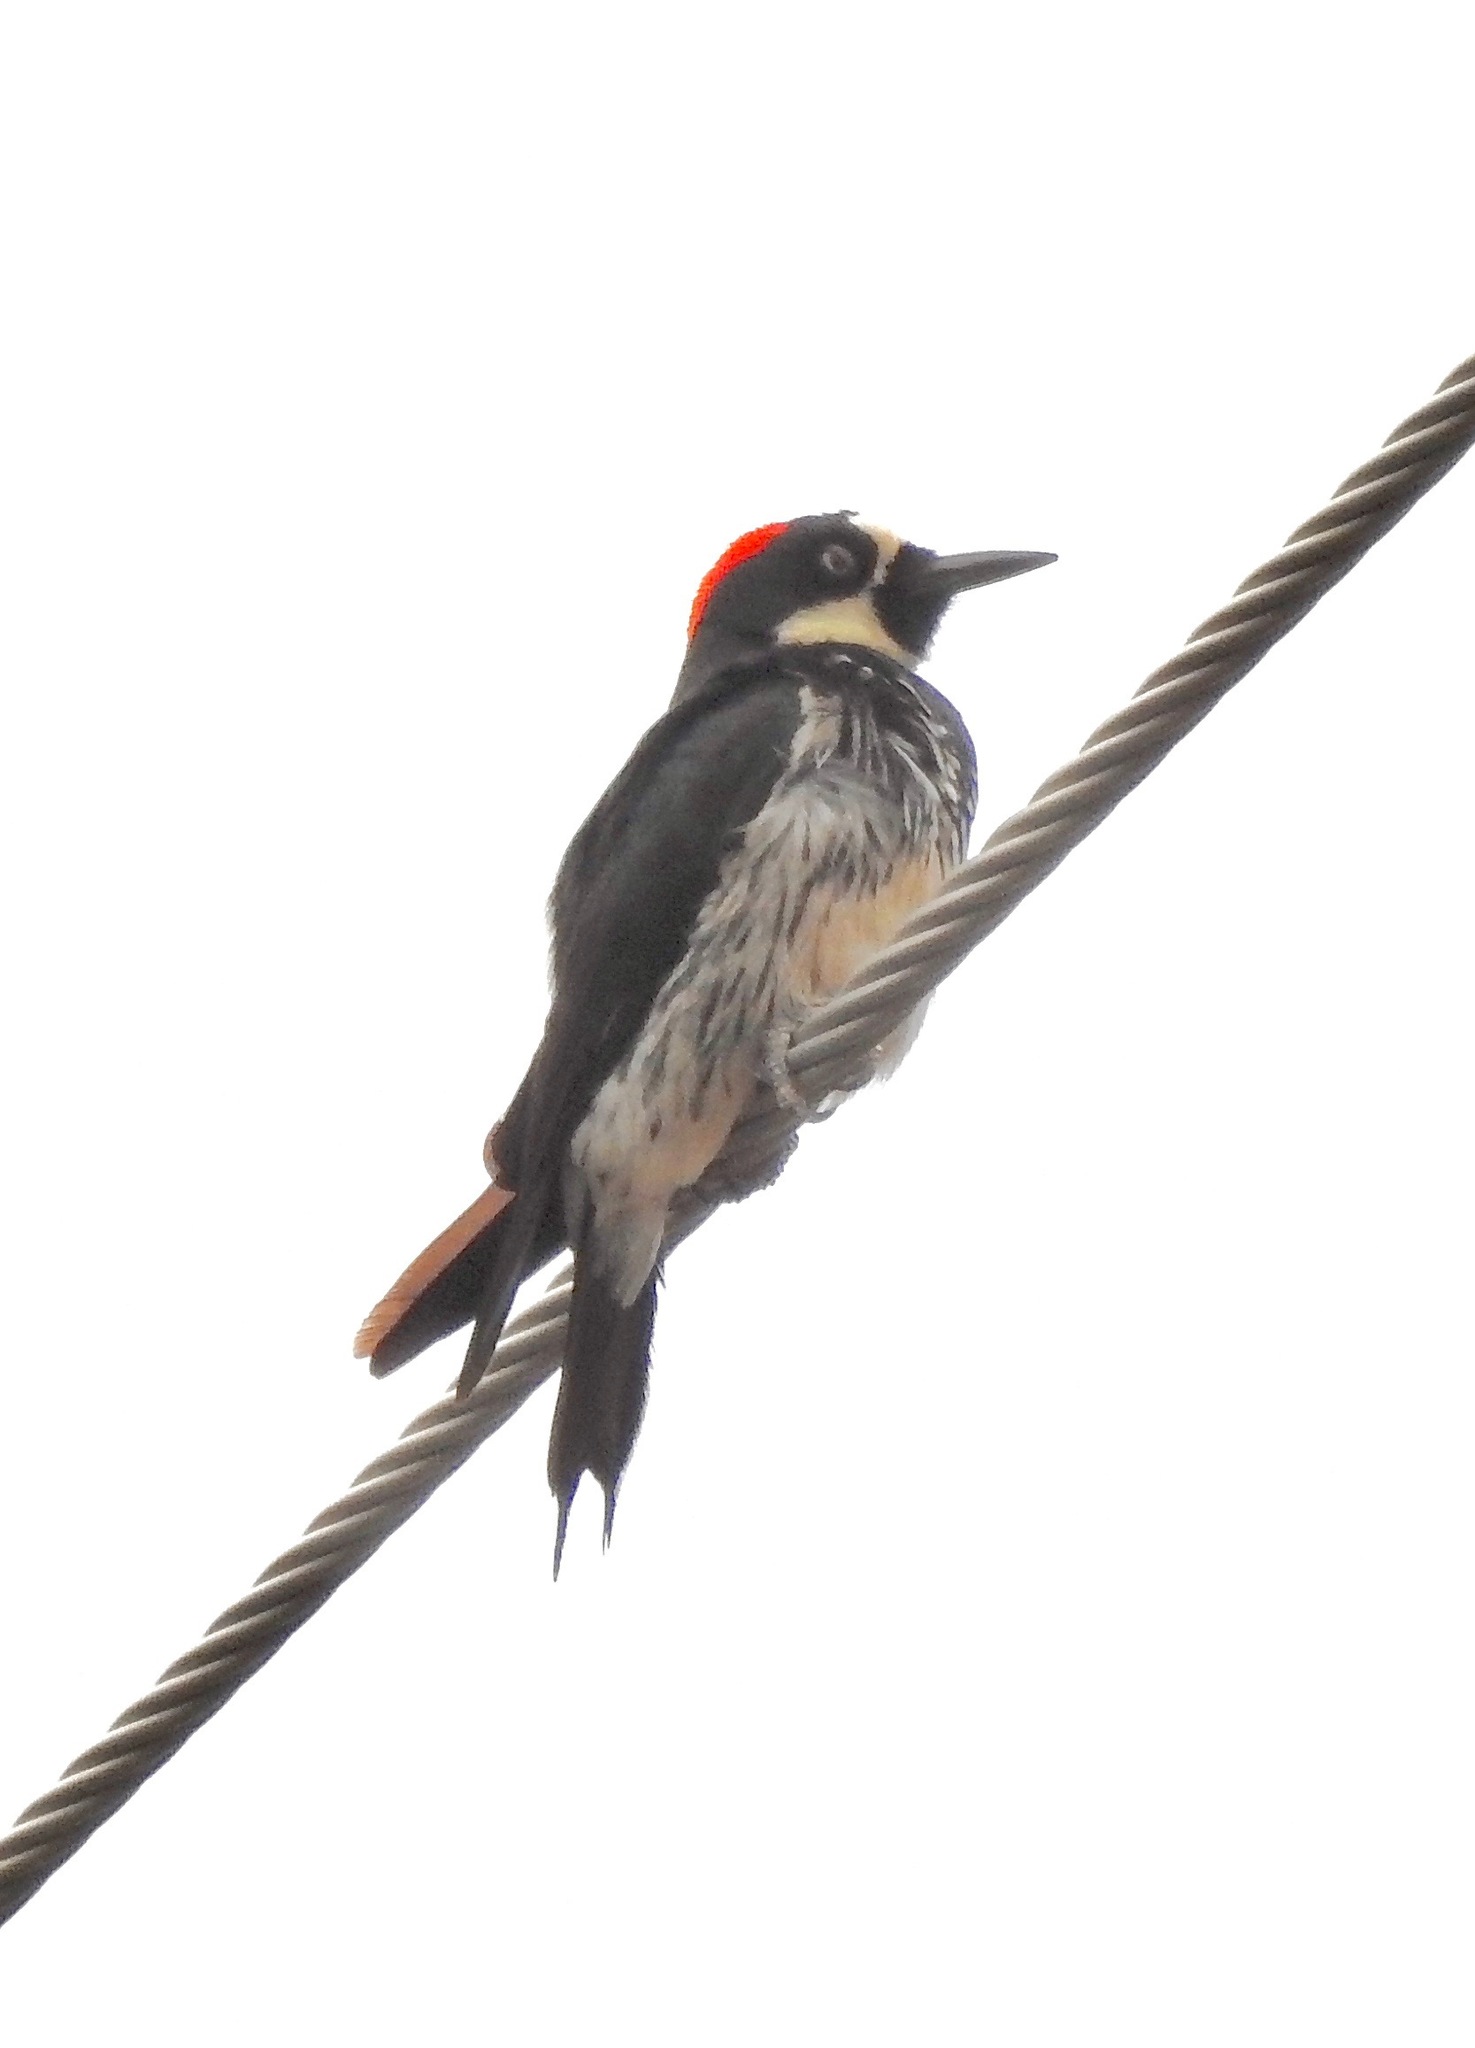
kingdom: Animalia
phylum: Chordata
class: Aves
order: Piciformes
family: Picidae
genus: Melanerpes
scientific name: Melanerpes formicivorus
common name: Acorn woodpecker
